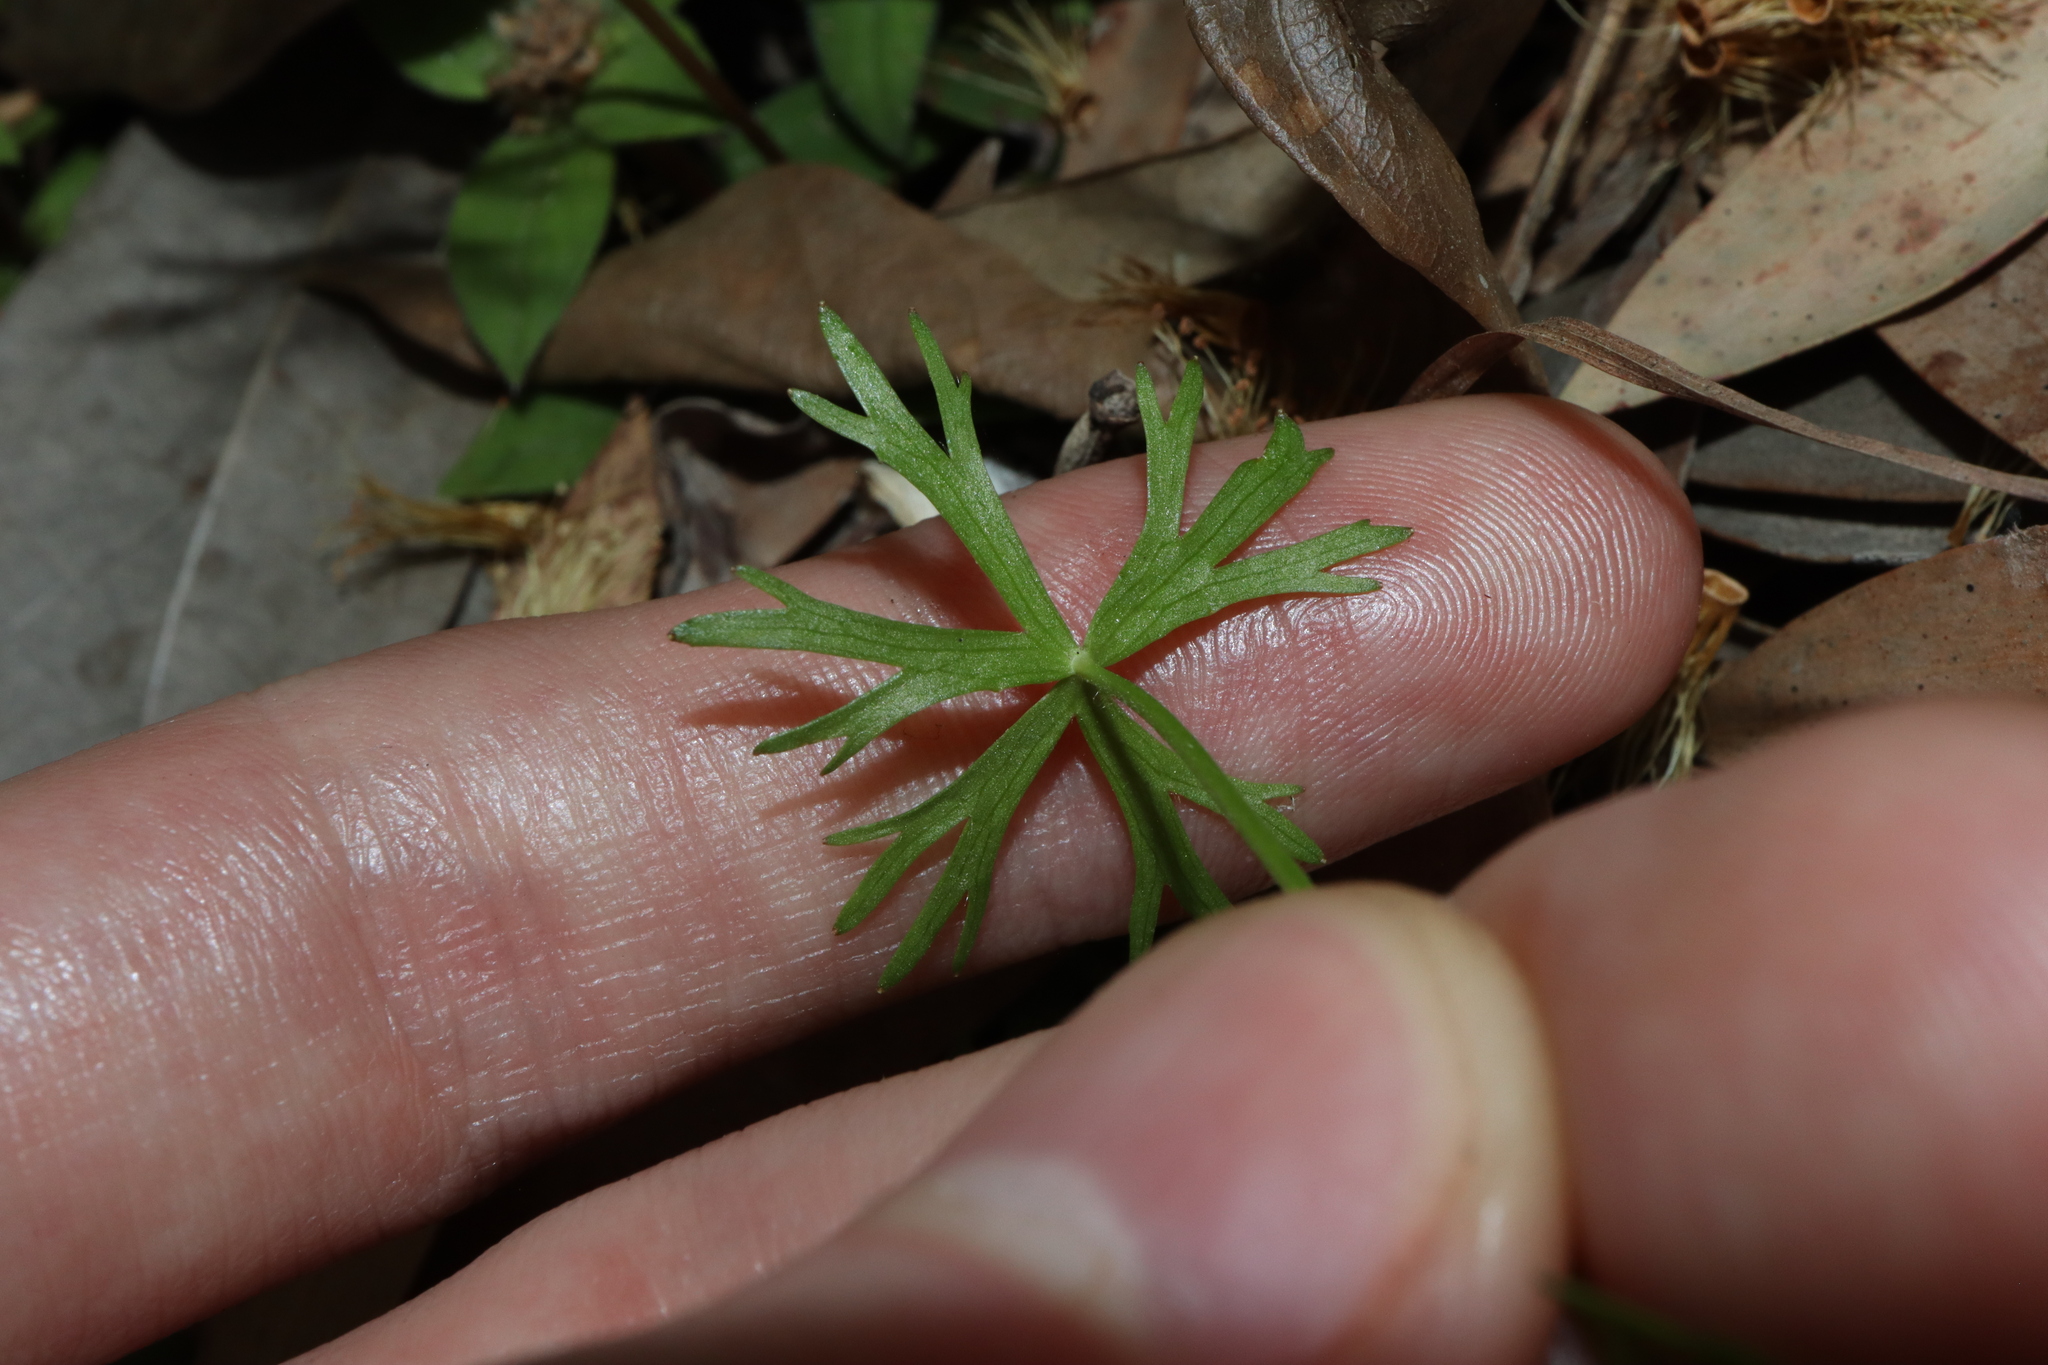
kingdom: Plantae
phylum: Tracheophyta
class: Magnoliopsida
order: Ranunculales
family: Ranunculaceae
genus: Ranunculus
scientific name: Ranunculus inundatus
